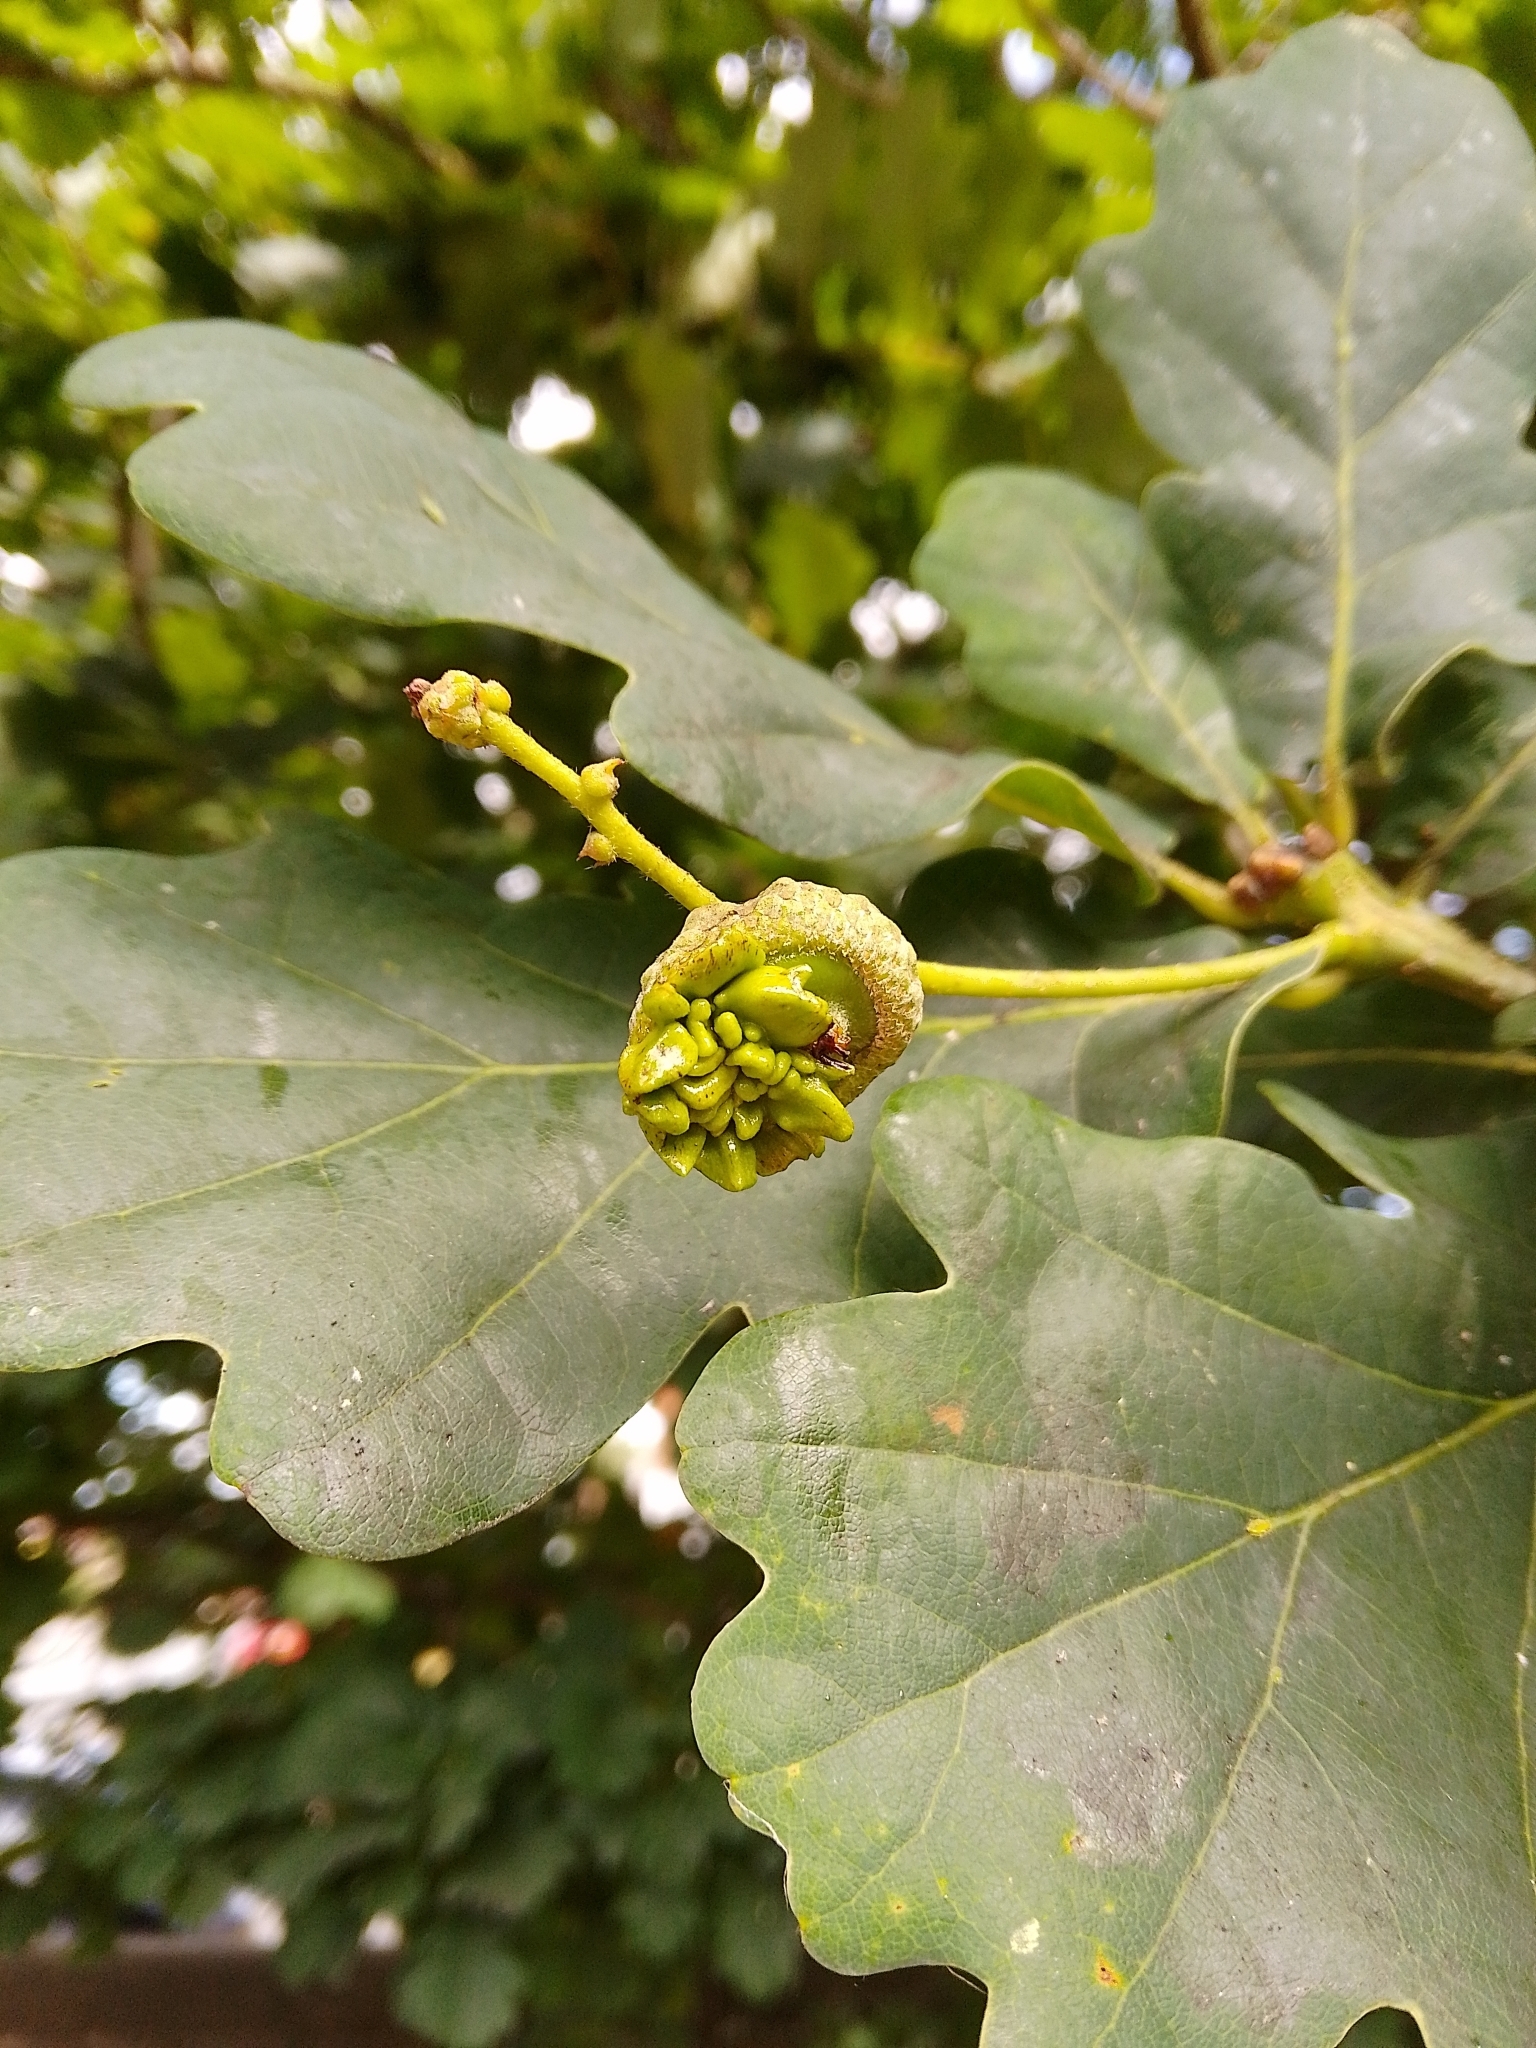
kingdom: Animalia
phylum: Arthropoda
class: Insecta
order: Hymenoptera
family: Cynipidae
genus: Andricus
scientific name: Andricus quercuscalicis
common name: Knopper gall
